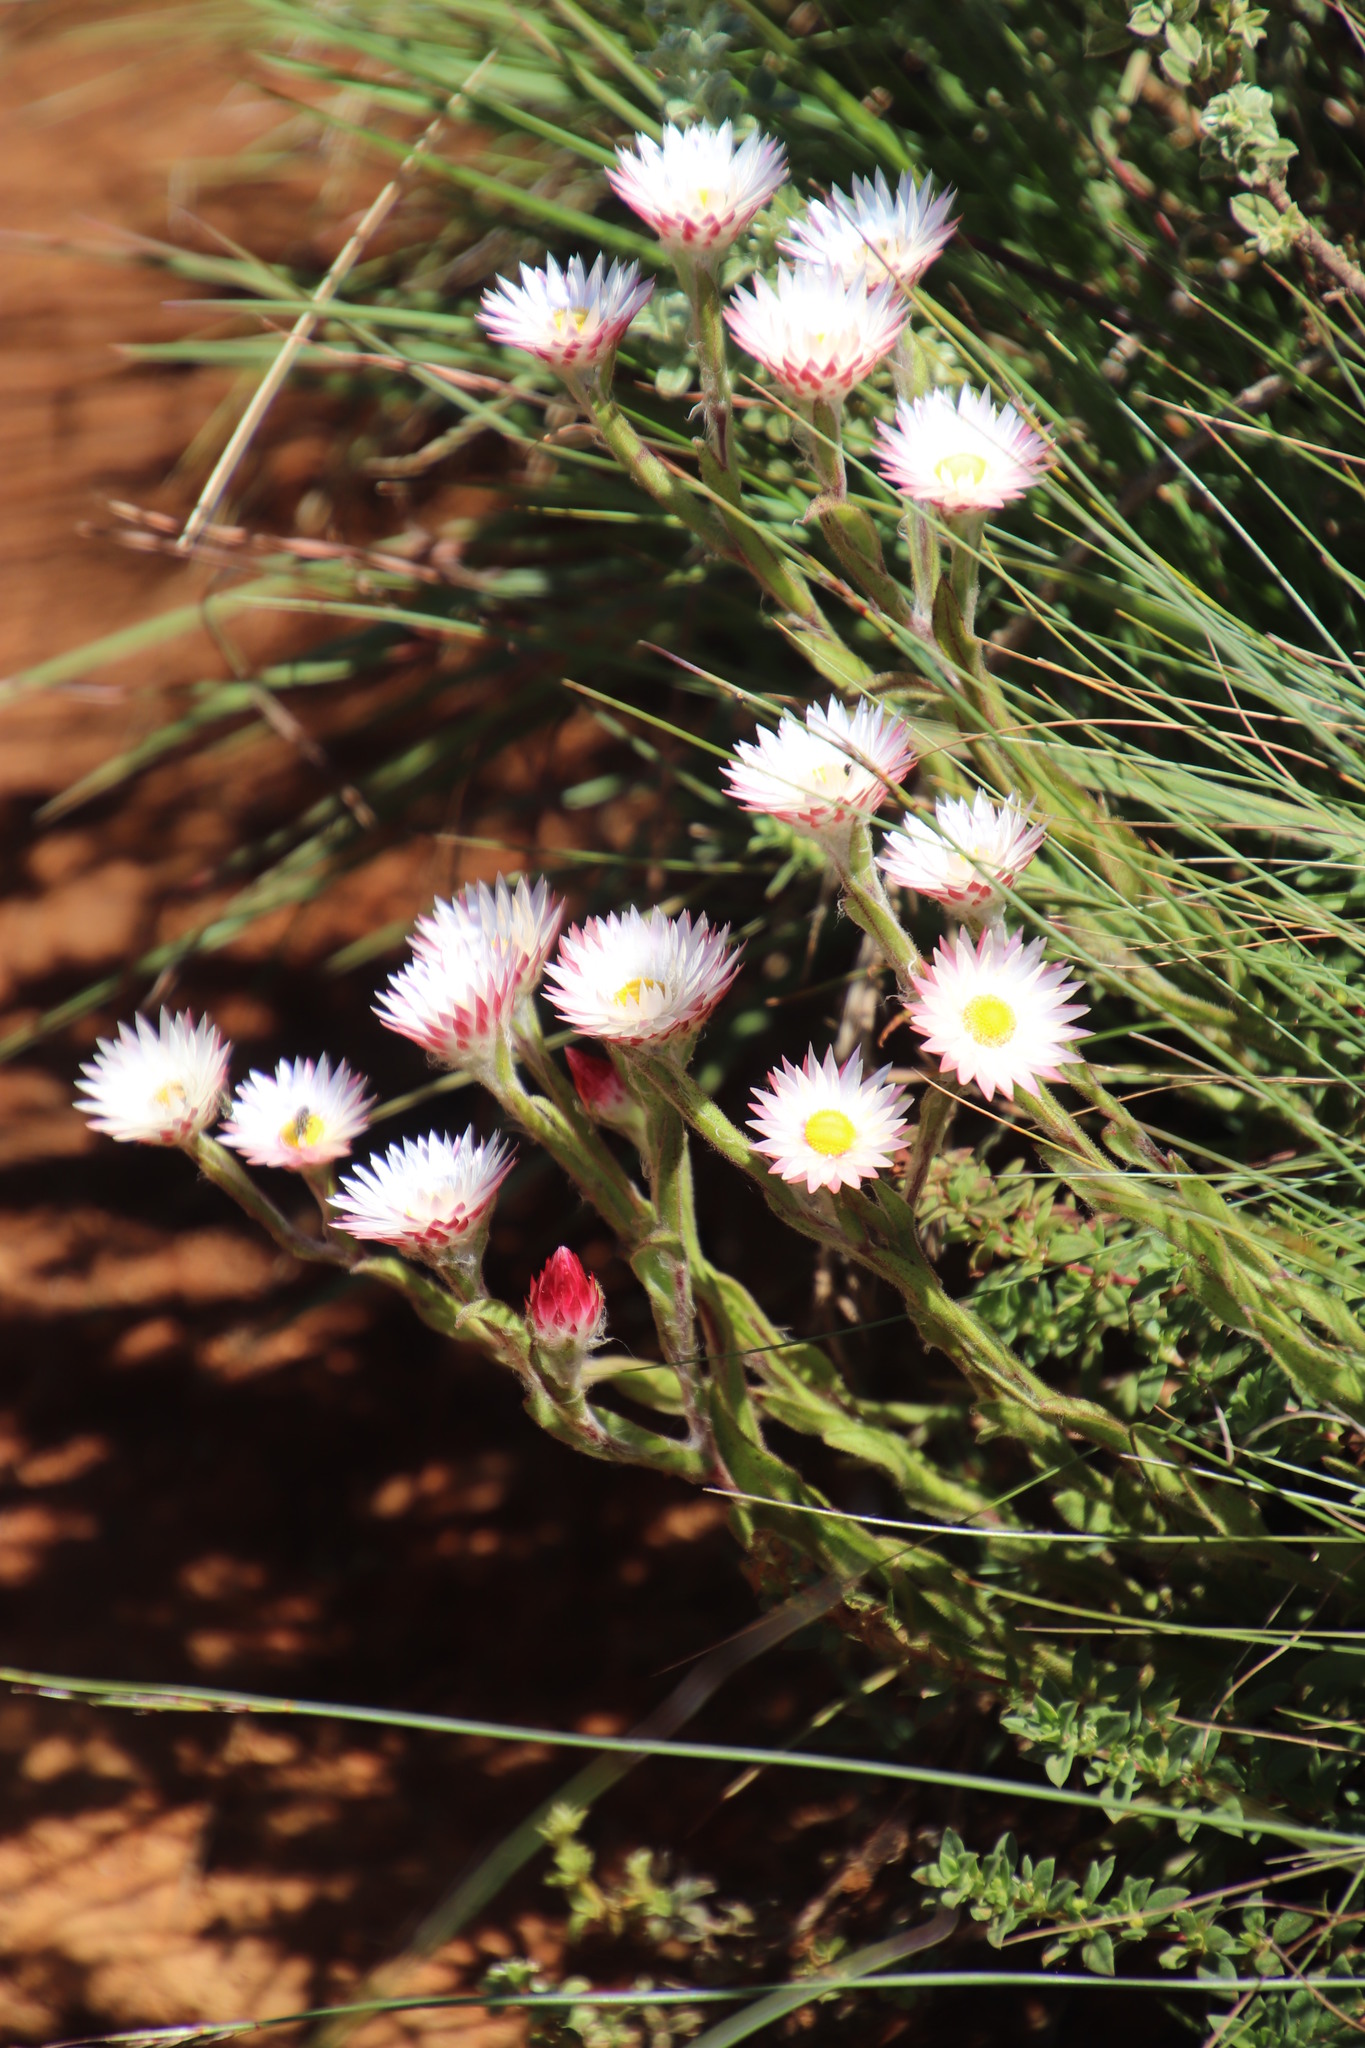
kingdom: Plantae
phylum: Tracheophyta
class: Magnoliopsida
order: Asterales
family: Asteraceae
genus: Helichrysum
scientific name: Helichrysum adenocarpum
